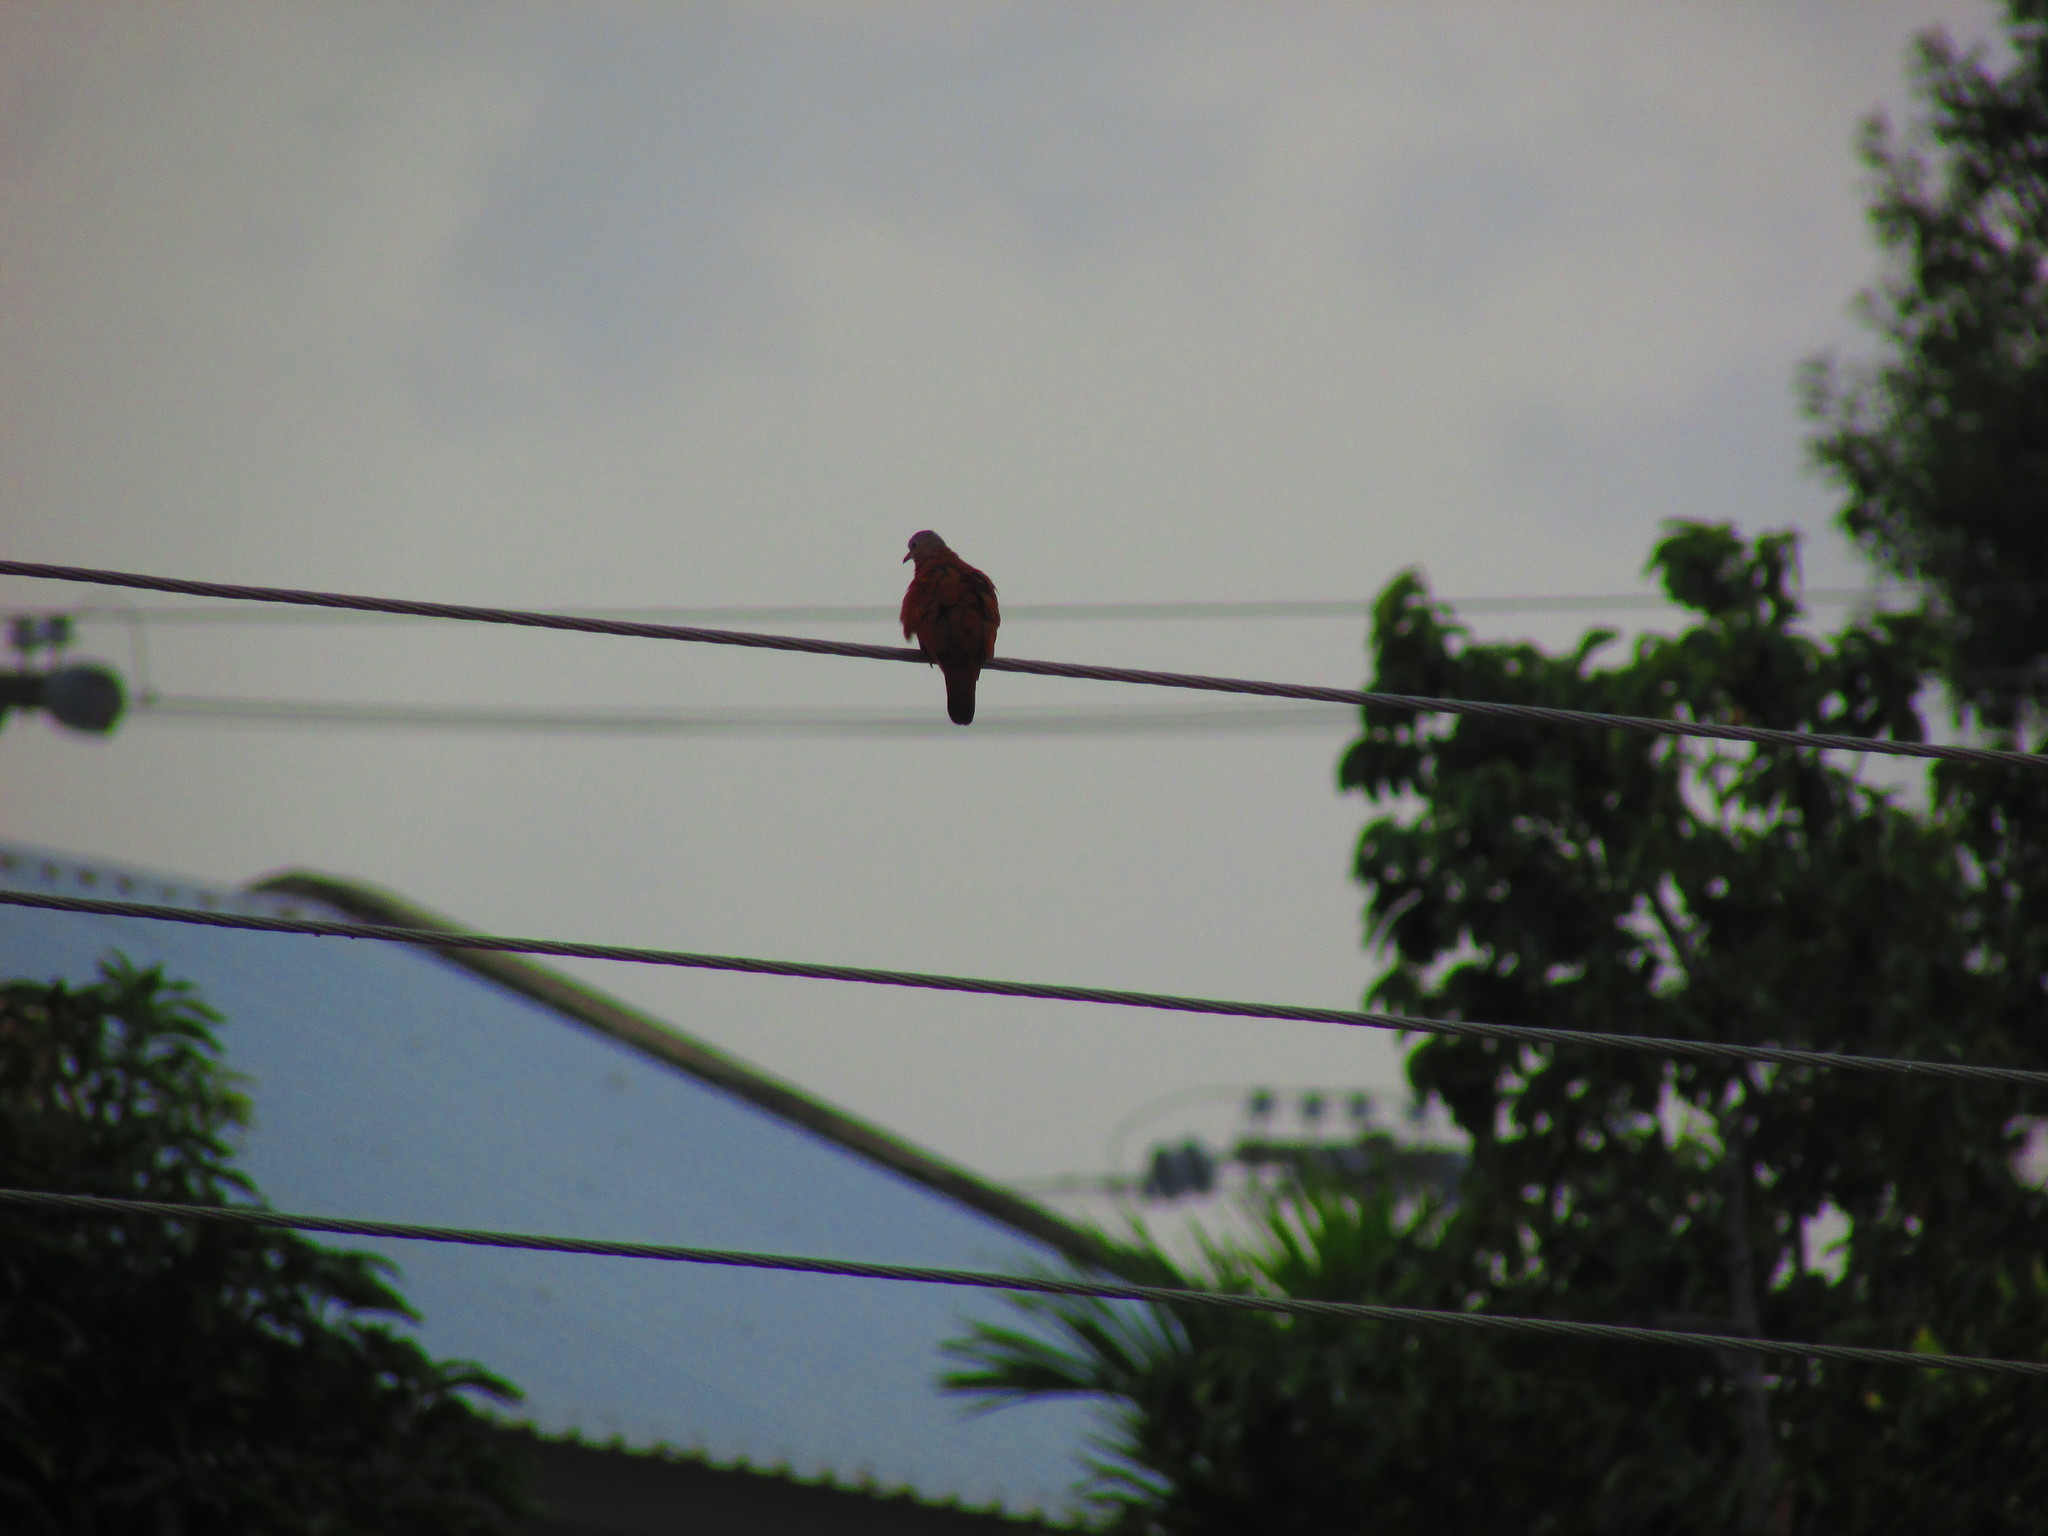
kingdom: Animalia
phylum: Chordata
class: Aves
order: Columbiformes
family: Columbidae
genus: Columbina
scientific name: Columbina talpacoti
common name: Ruddy ground dove
